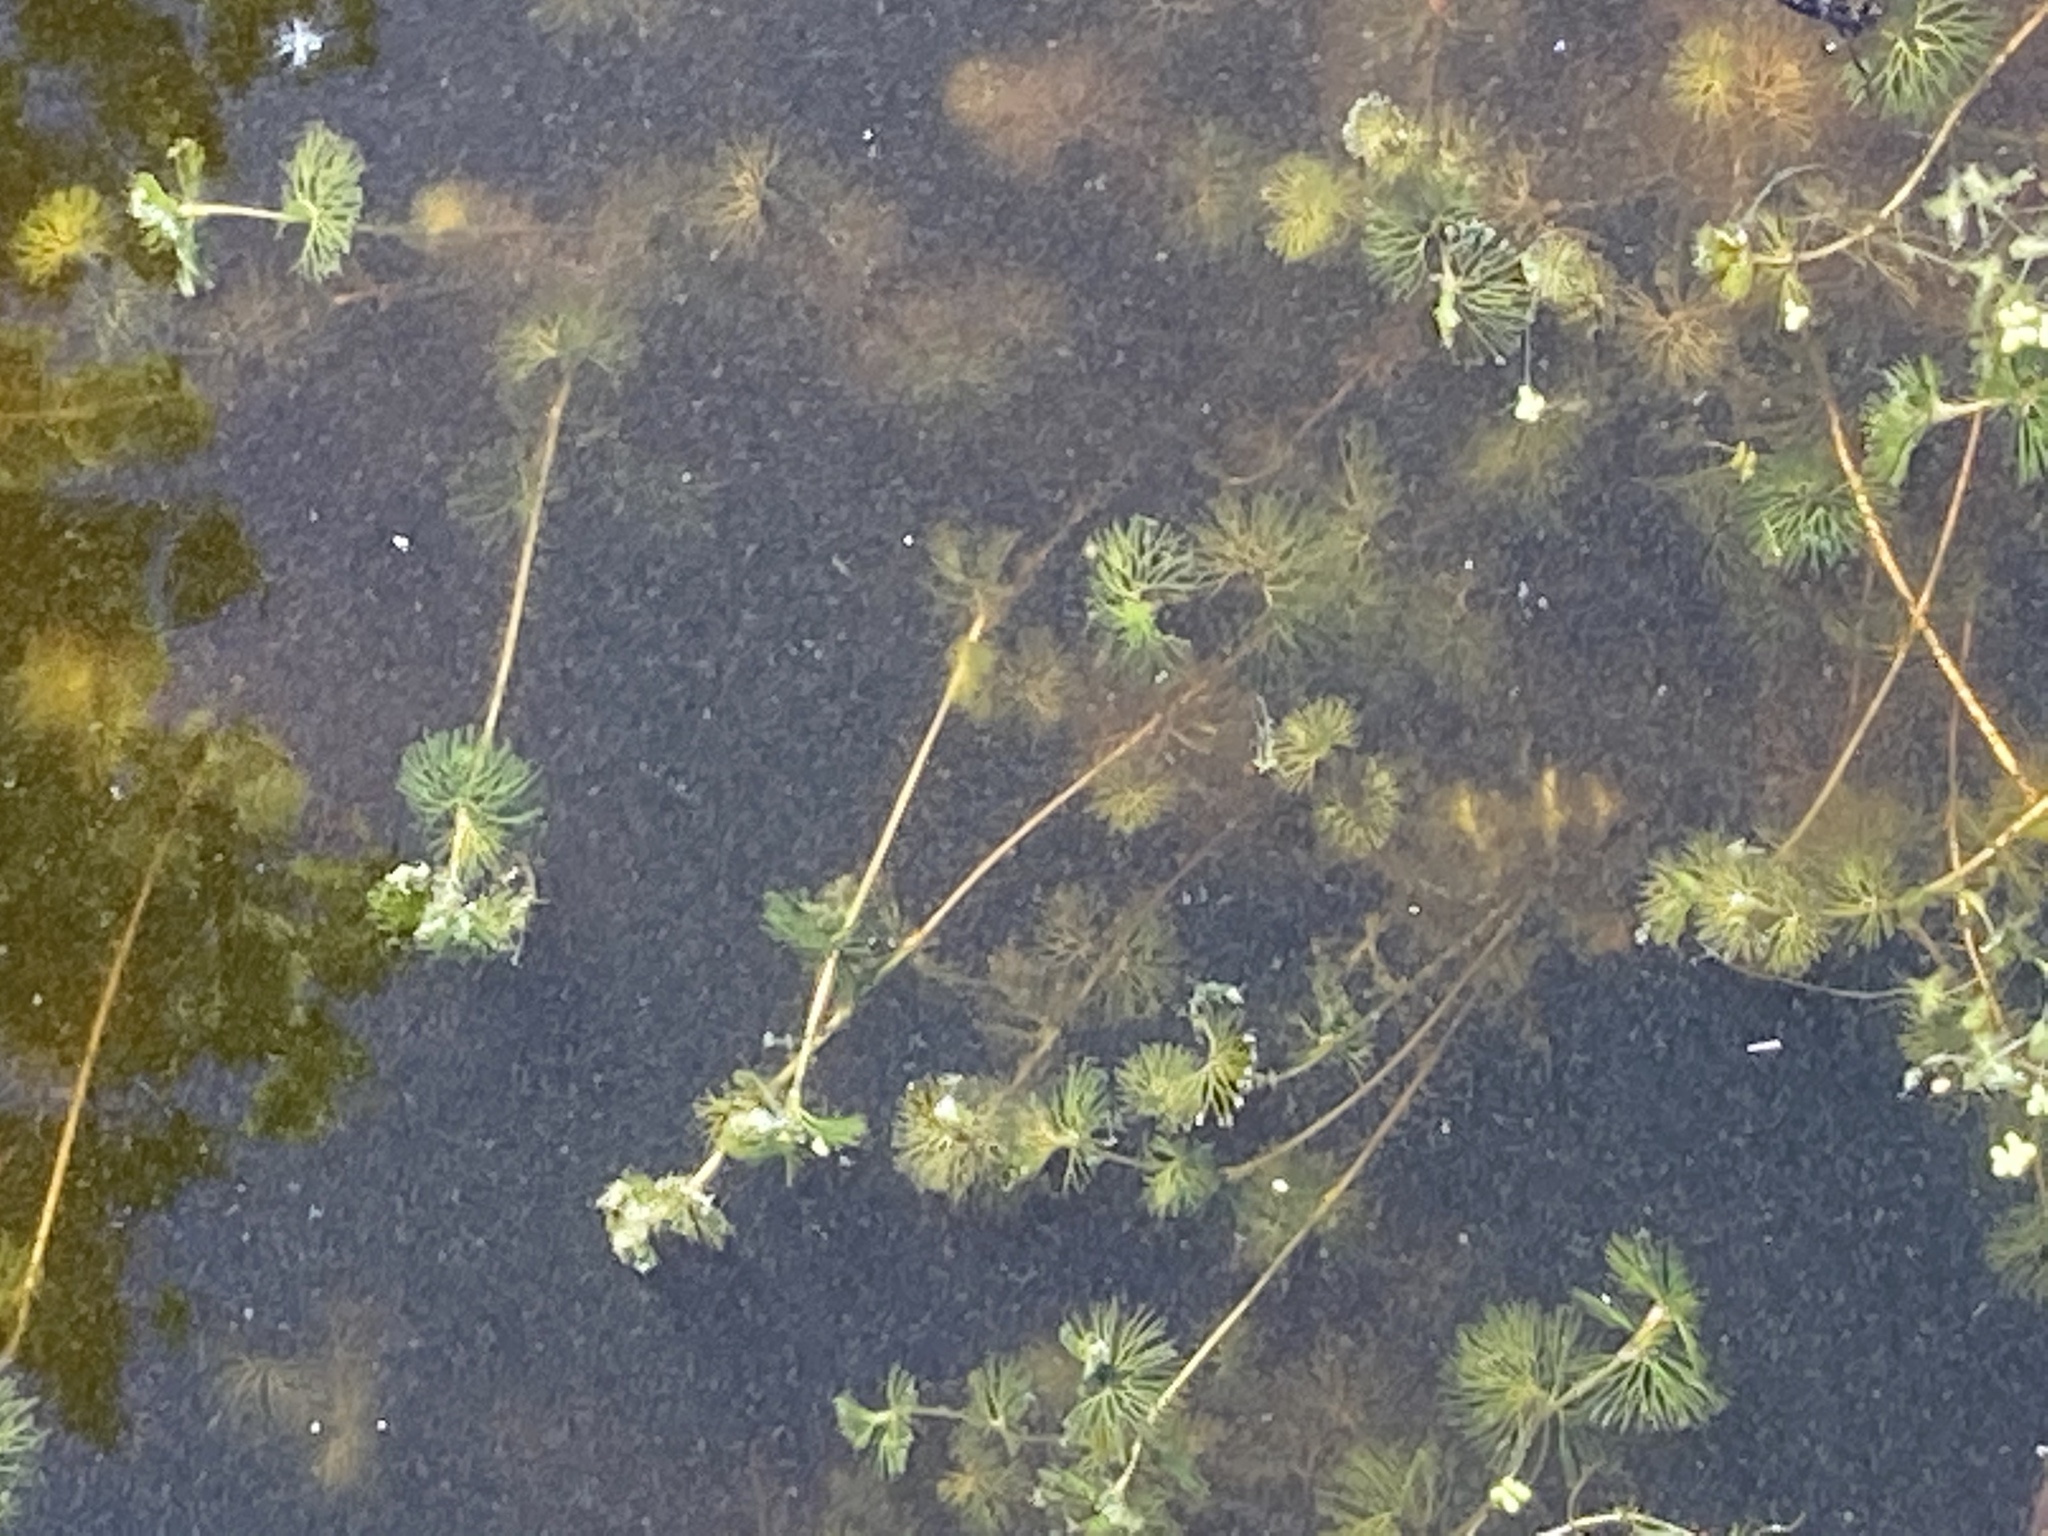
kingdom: Plantae
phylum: Tracheophyta
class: Magnoliopsida
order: Ranunculales
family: Ranunculaceae
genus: Ranunculus
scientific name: Ranunculus circinatus
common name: Fan-leaved water-crowfoot
